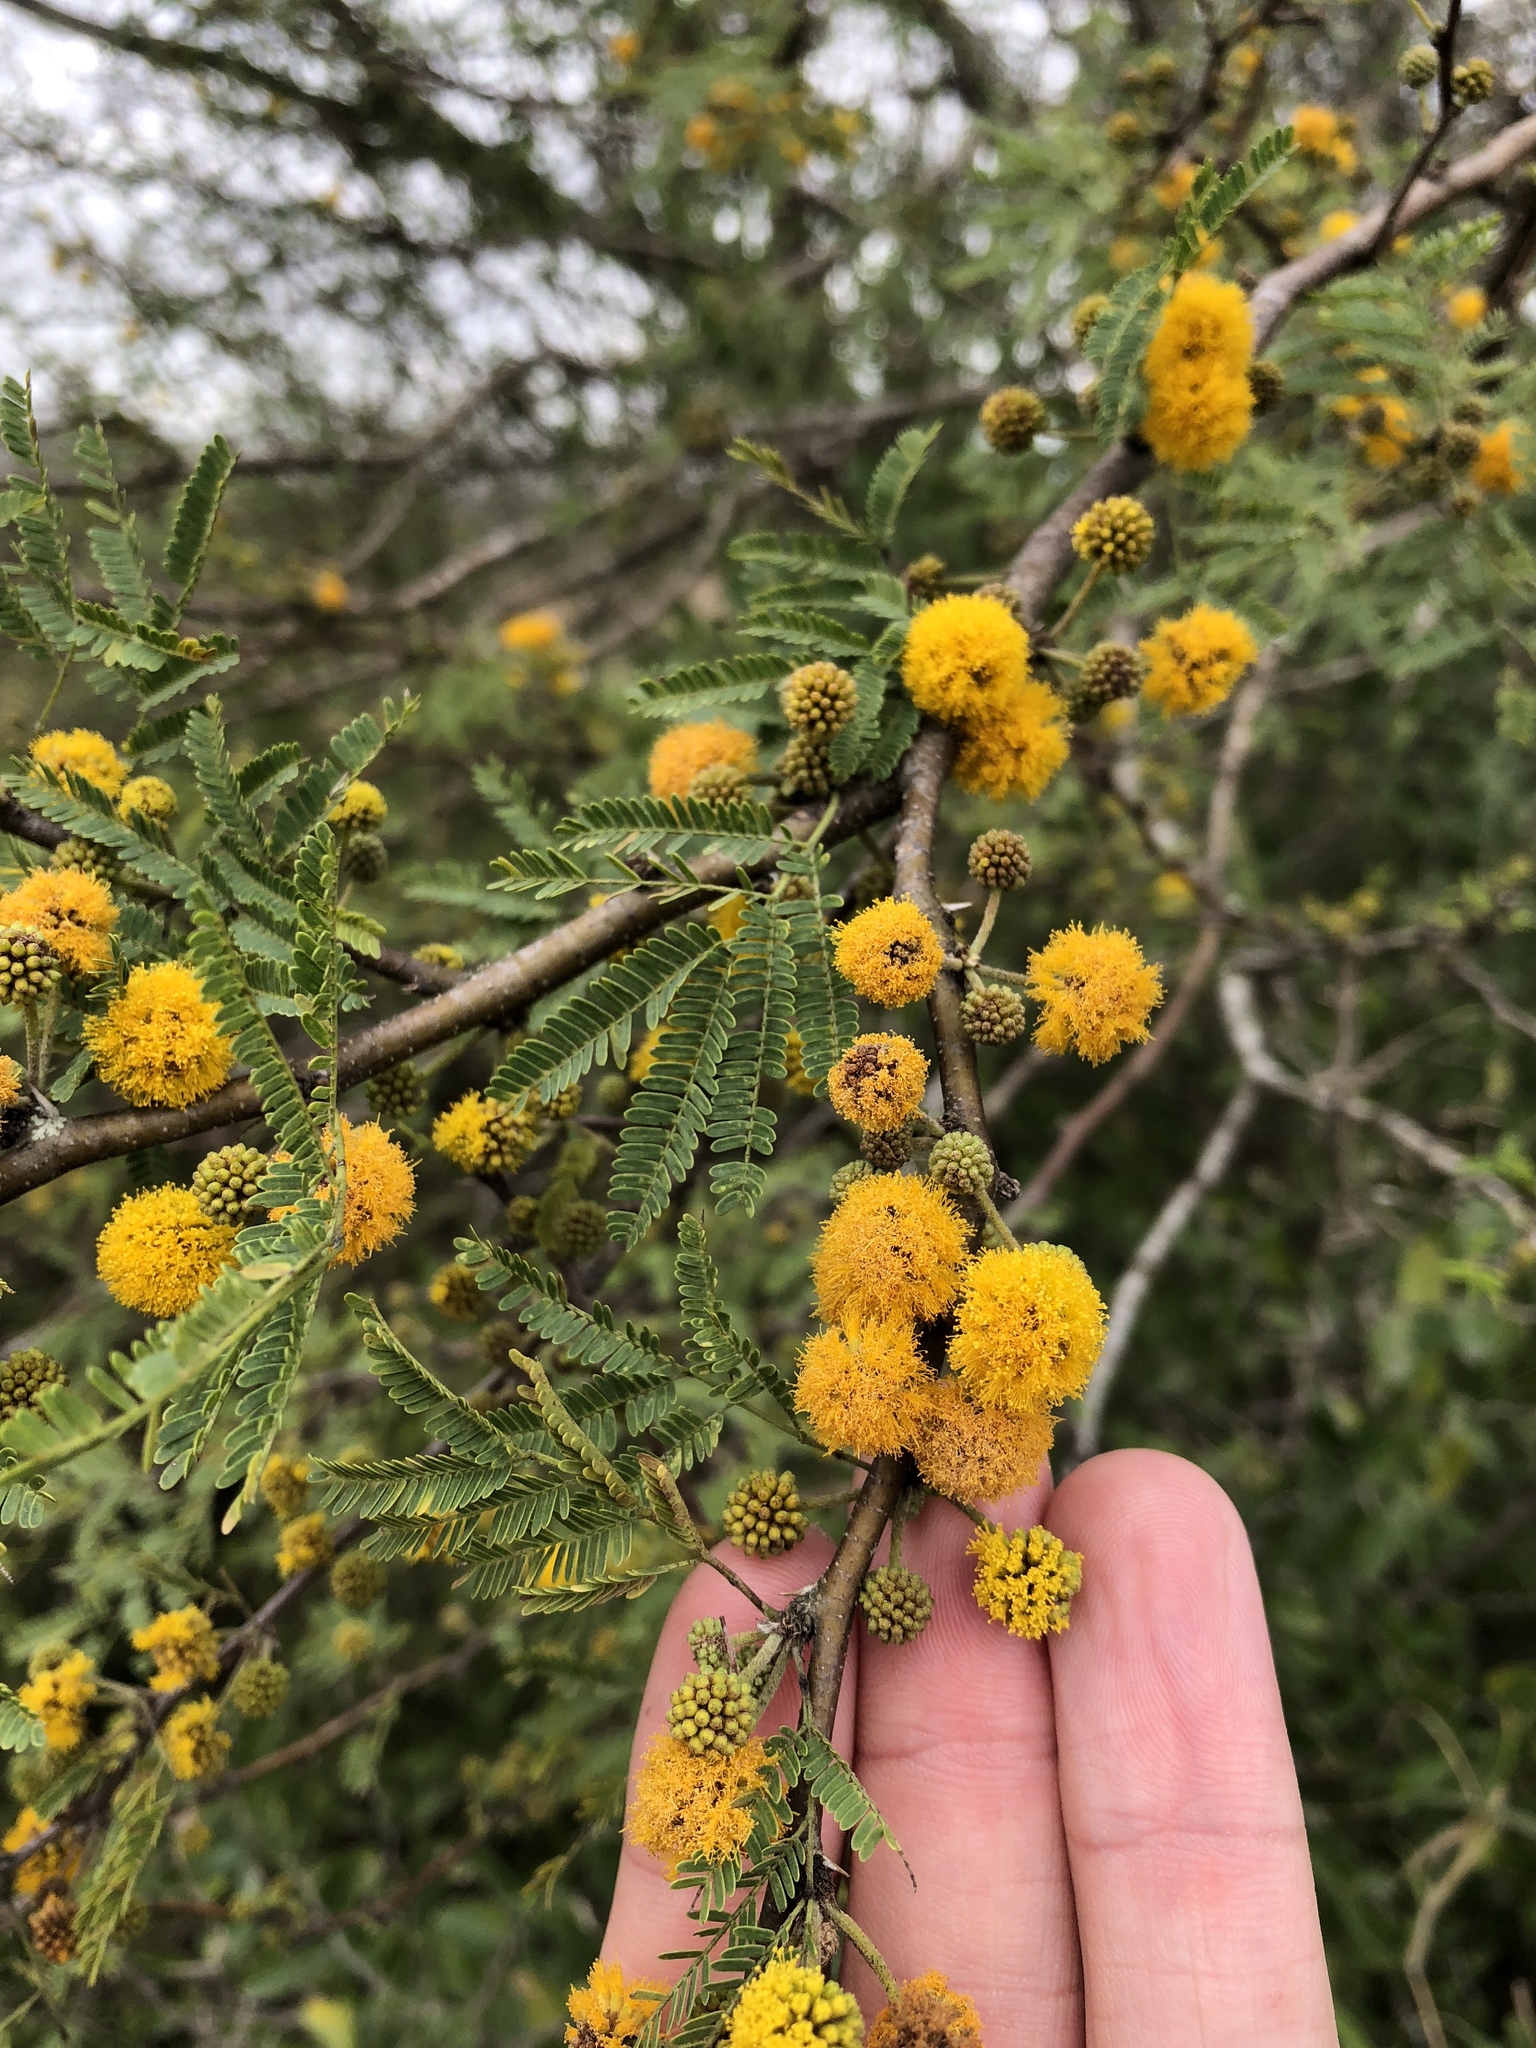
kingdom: Plantae
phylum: Tracheophyta
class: Magnoliopsida
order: Fabales
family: Fabaceae
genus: Vachellia
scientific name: Vachellia farnesiana
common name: Sweet acacia
